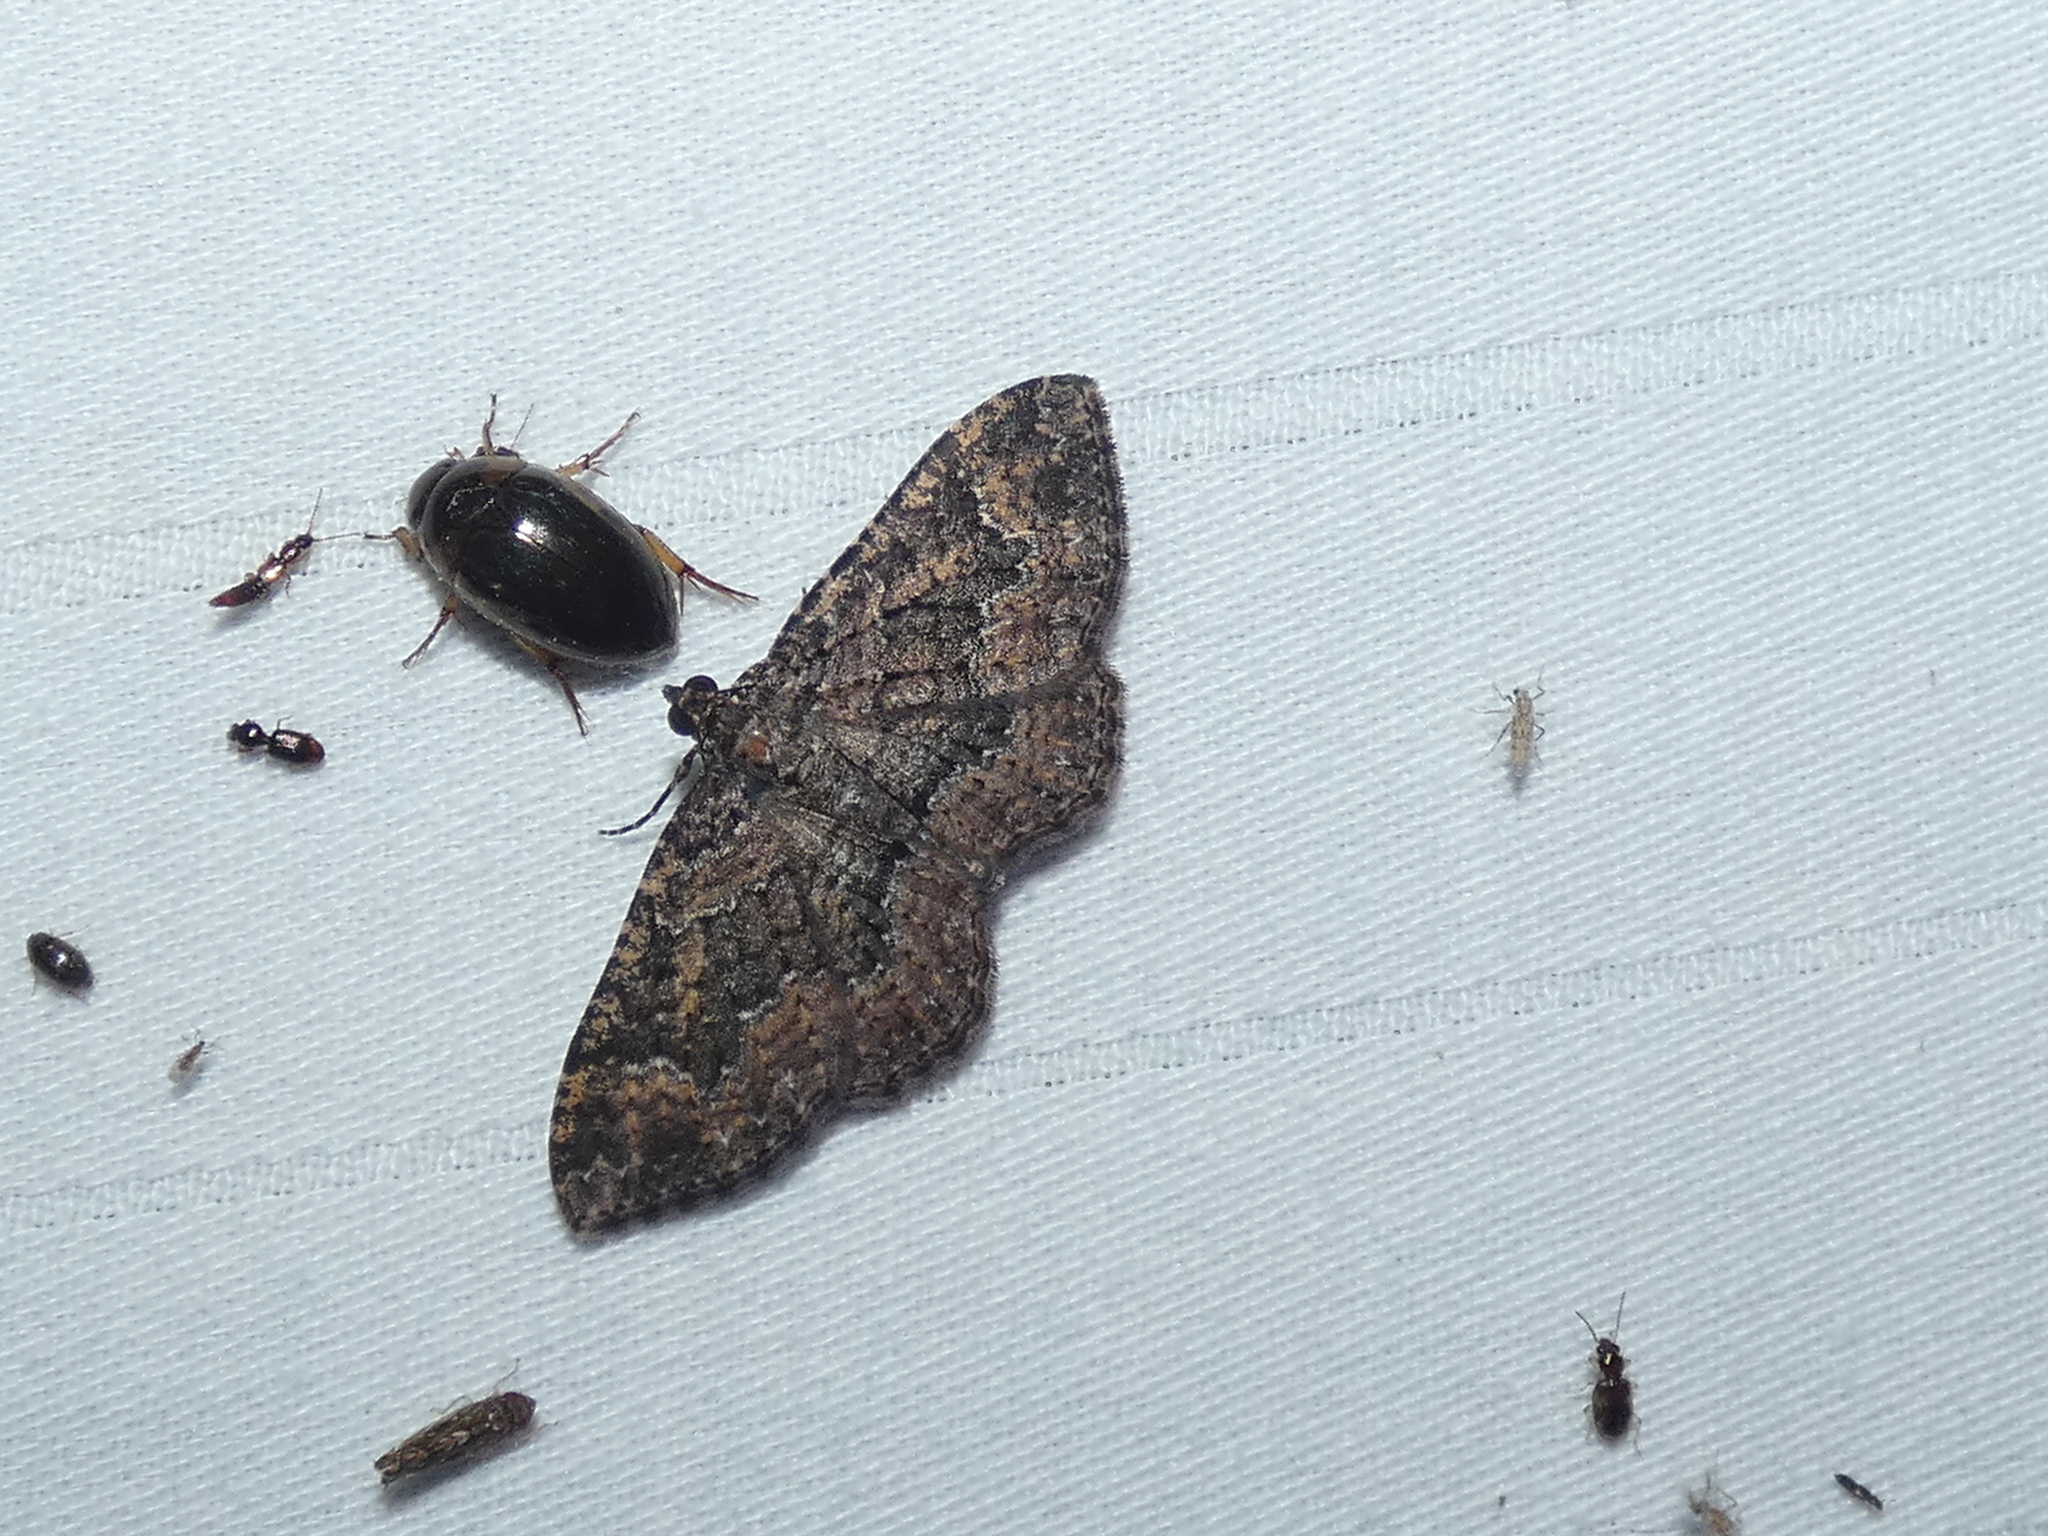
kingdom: Animalia
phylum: Arthropoda
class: Insecta
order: Lepidoptera
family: Geometridae
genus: Disclisioprocta
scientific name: Disclisioprocta stellata
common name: Somber carpet
